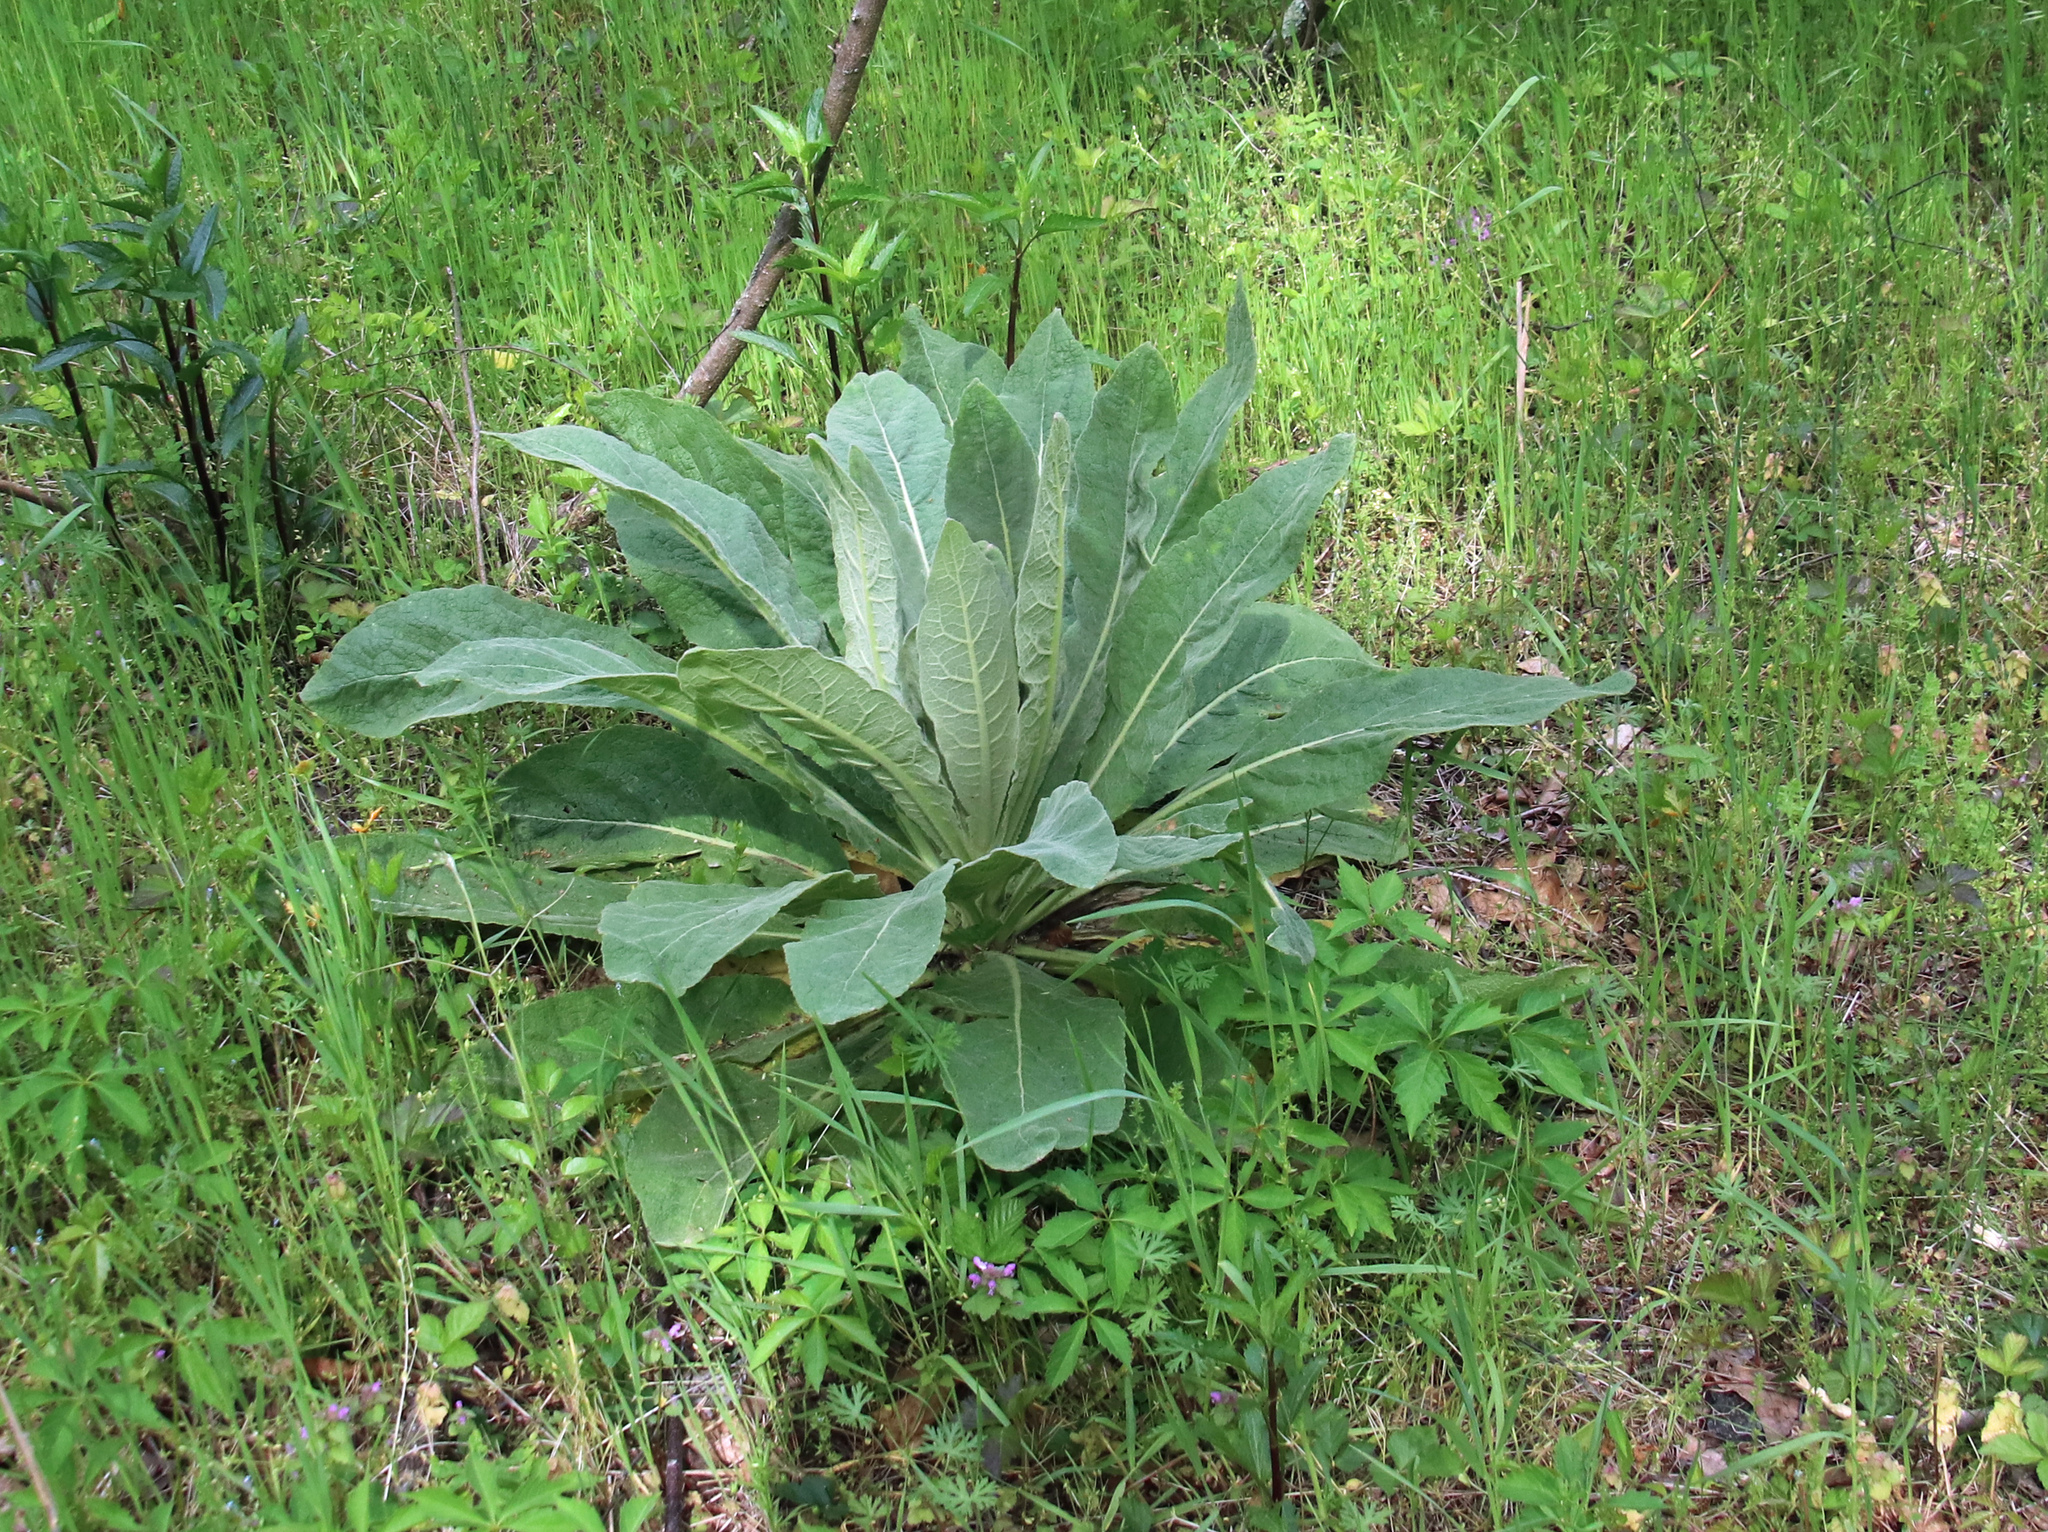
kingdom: Plantae
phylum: Tracheophyta
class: Magnoliopsida
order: Lamiales
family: Scrophulariaceae
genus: Verbascum
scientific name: Verbascum thapsus
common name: Common mullein
